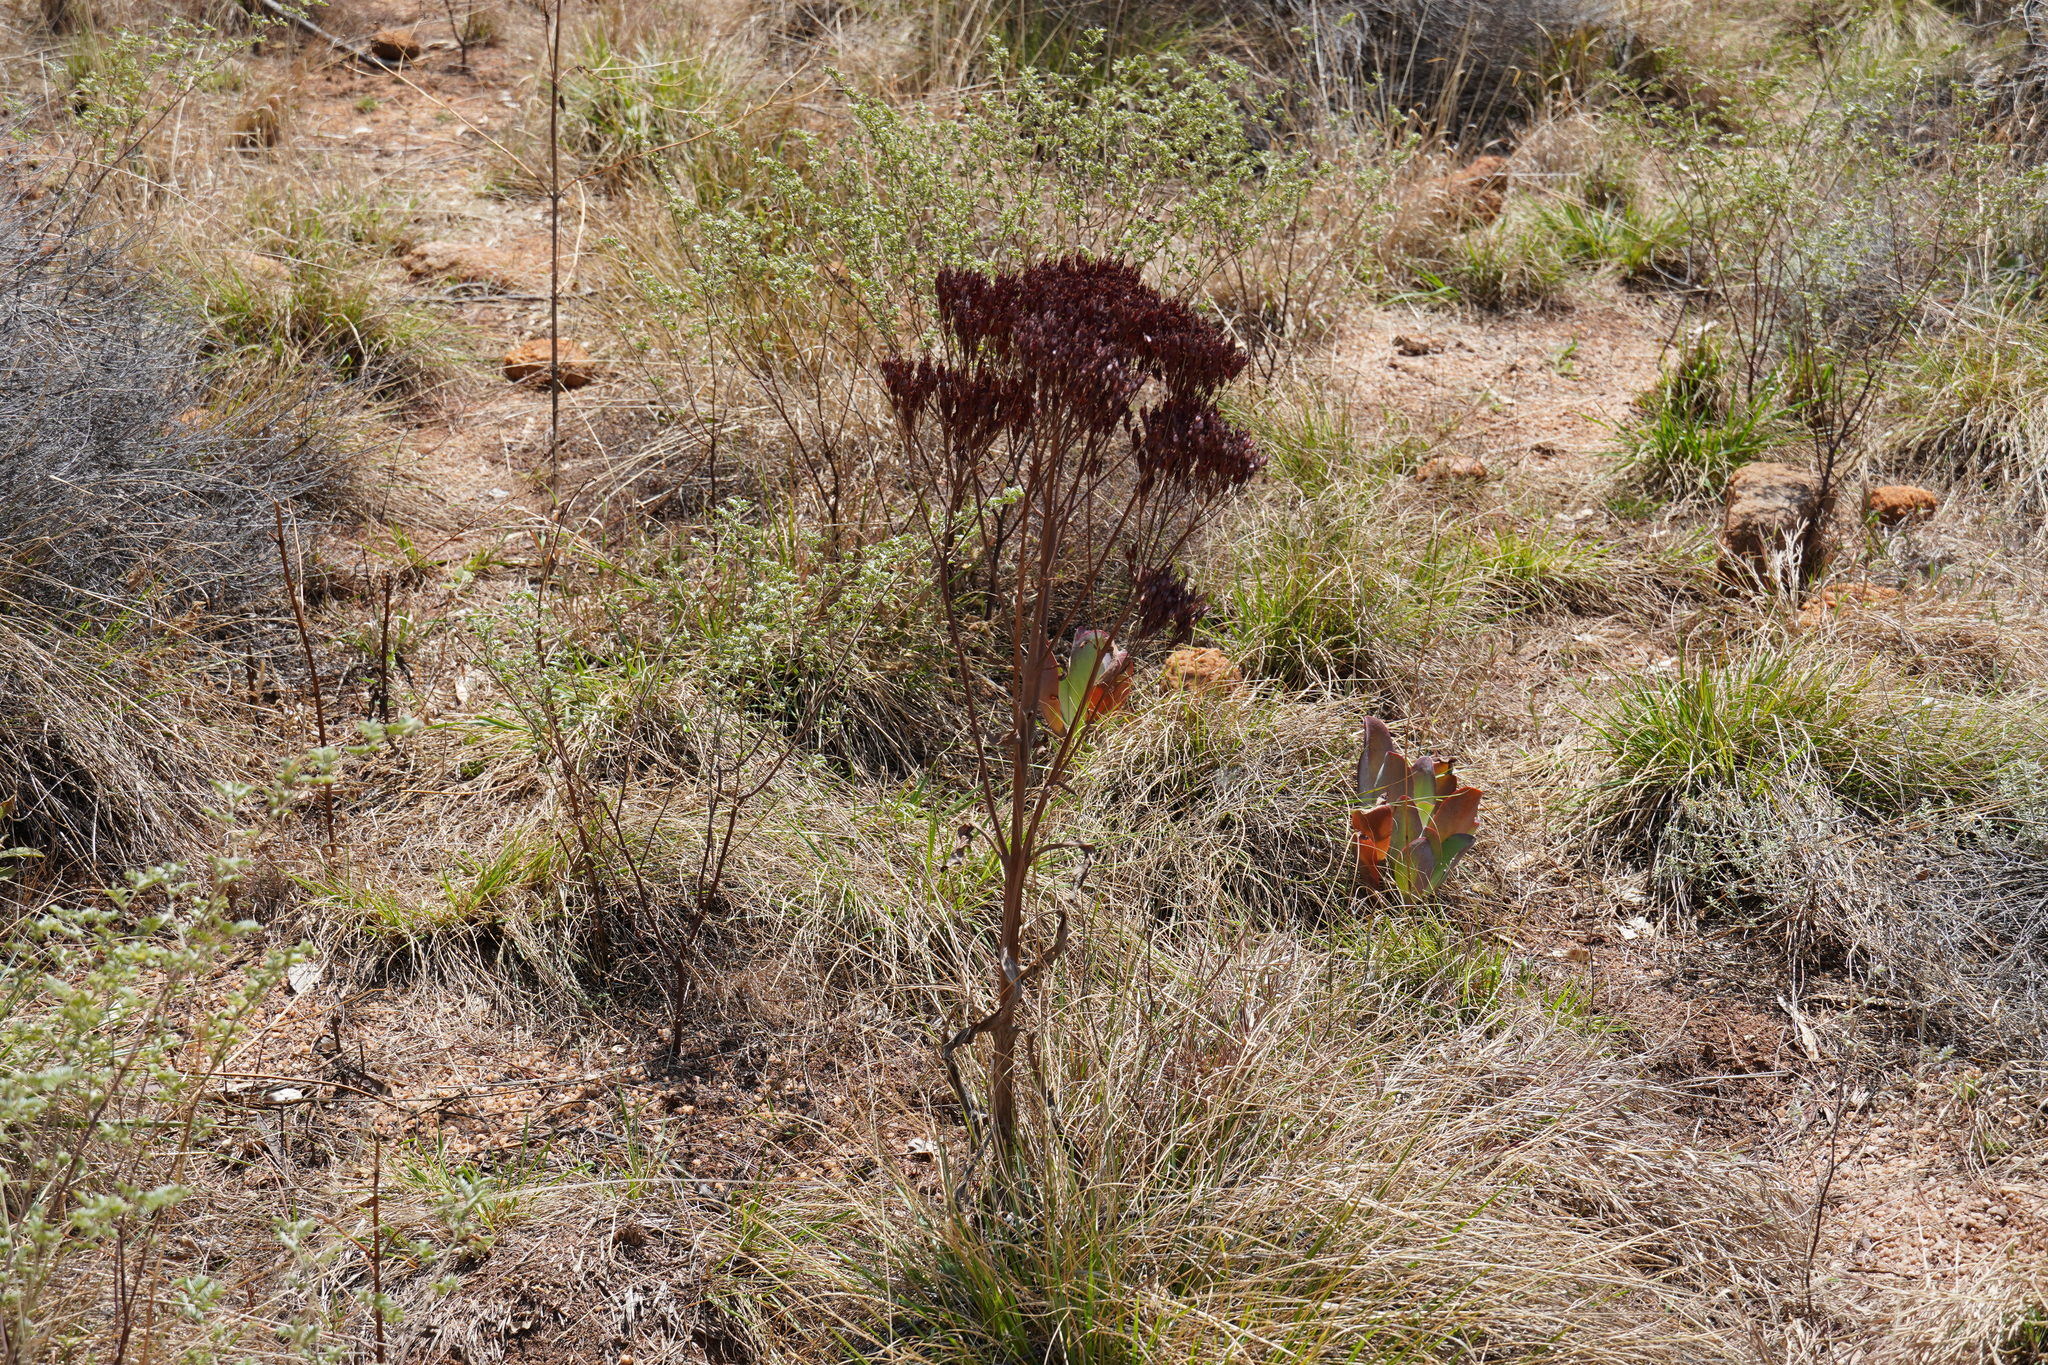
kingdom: Plantae
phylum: Tracheophyta
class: Magnoliopsida
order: Saxifragales
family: Crassulaceae
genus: Kalanchoe
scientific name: Kalanchoe paniculata
